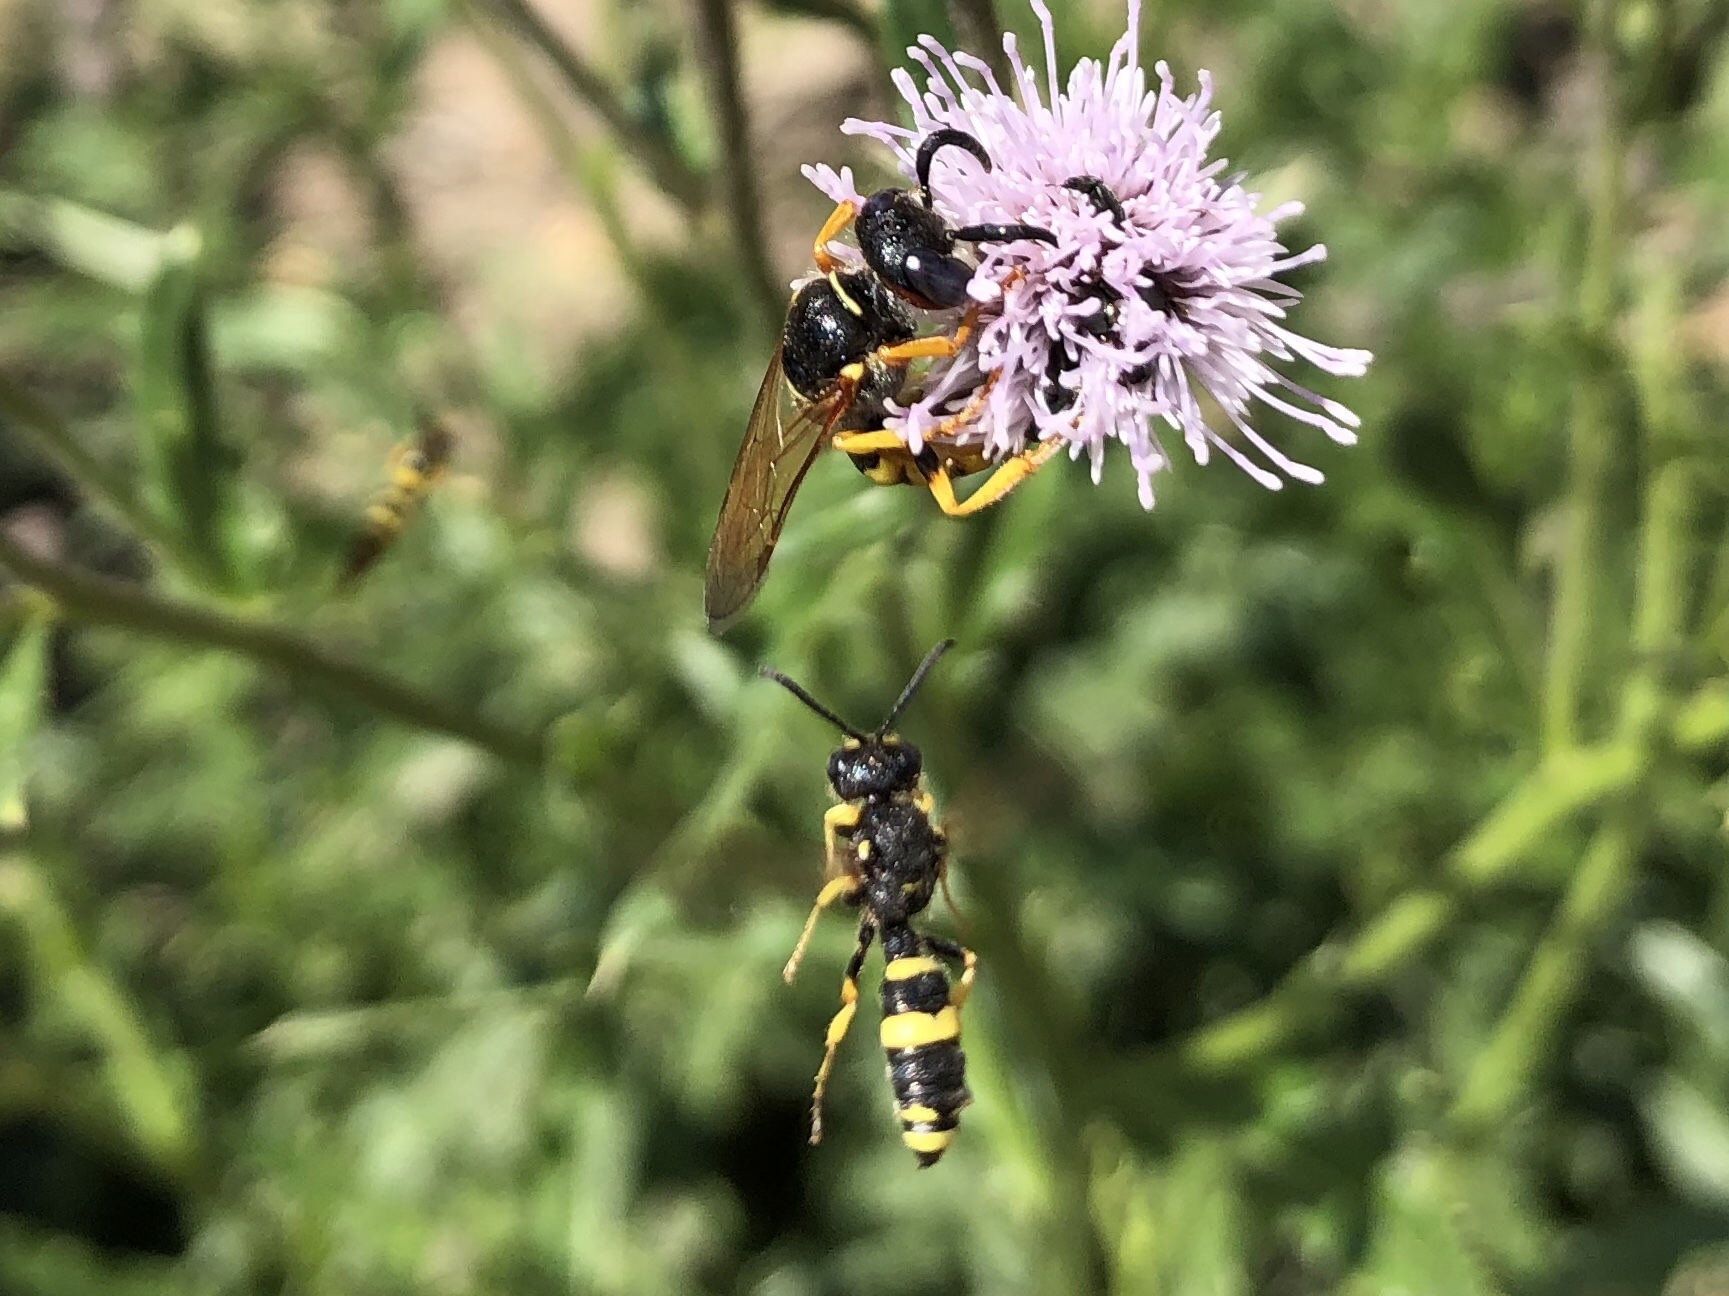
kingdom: Animalia
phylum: Arthropoda
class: Insecta
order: Hymenoptera
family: Crabronidae
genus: Cerceris
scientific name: Cerceris rybyensis
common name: Ornate tailed digger wasp
